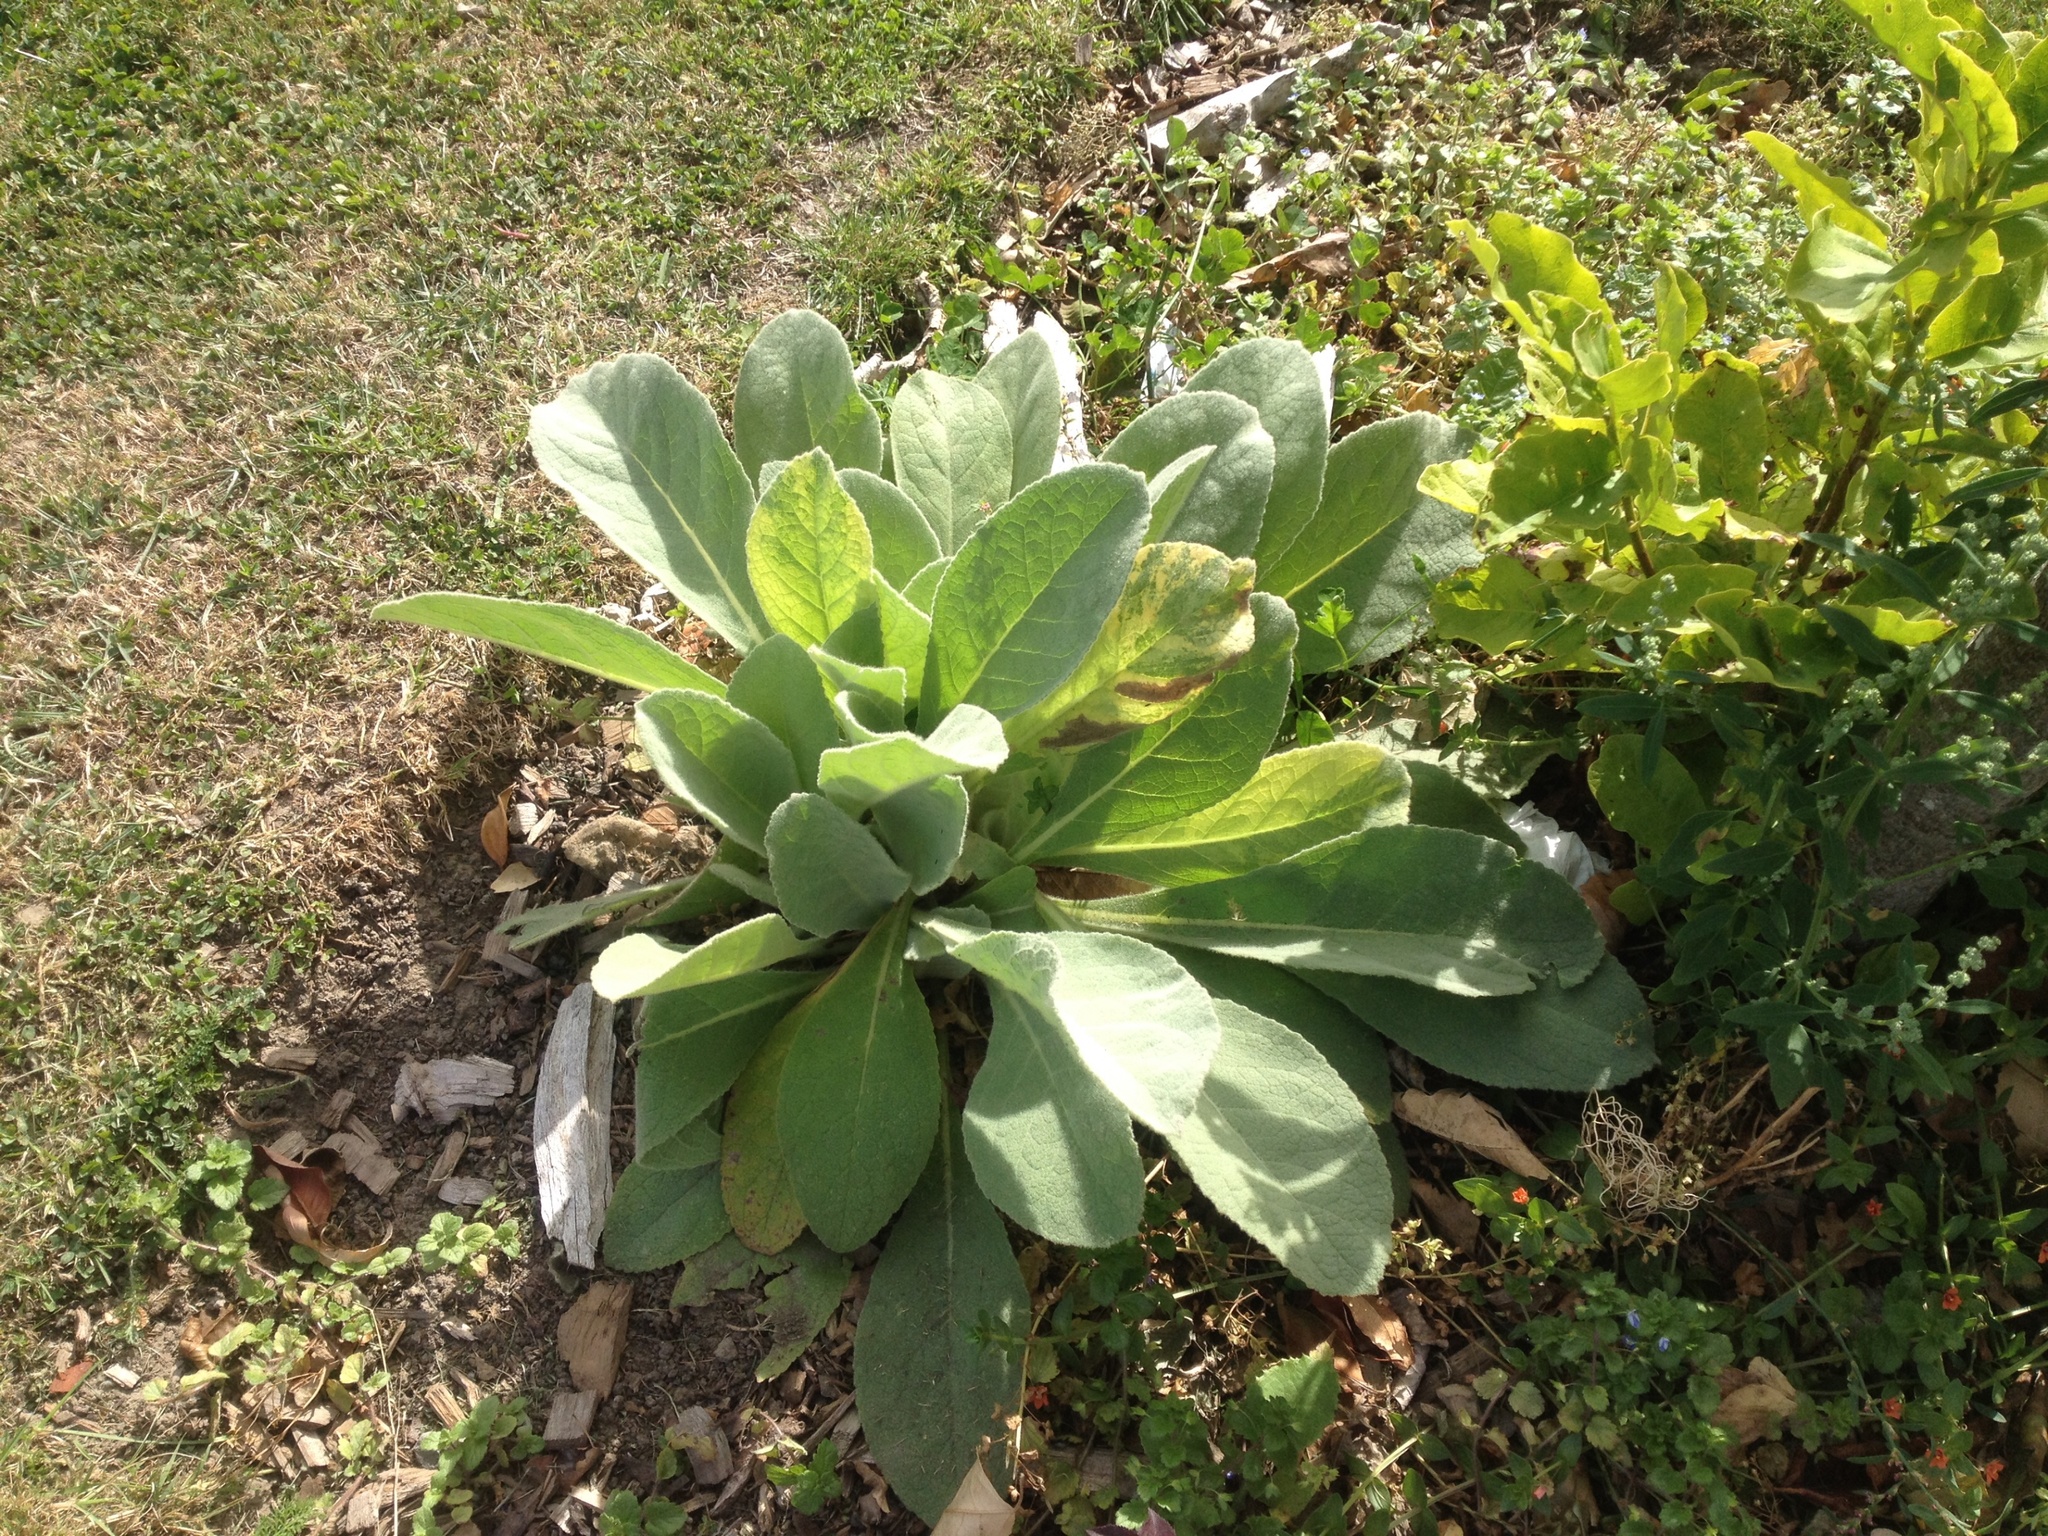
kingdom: Plantae
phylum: Tracheophyta
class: Magnoliopsida
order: Lamiales
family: Scrophulariaceae
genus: Verbascum
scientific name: Verbascum thapsus
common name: Common mullein
